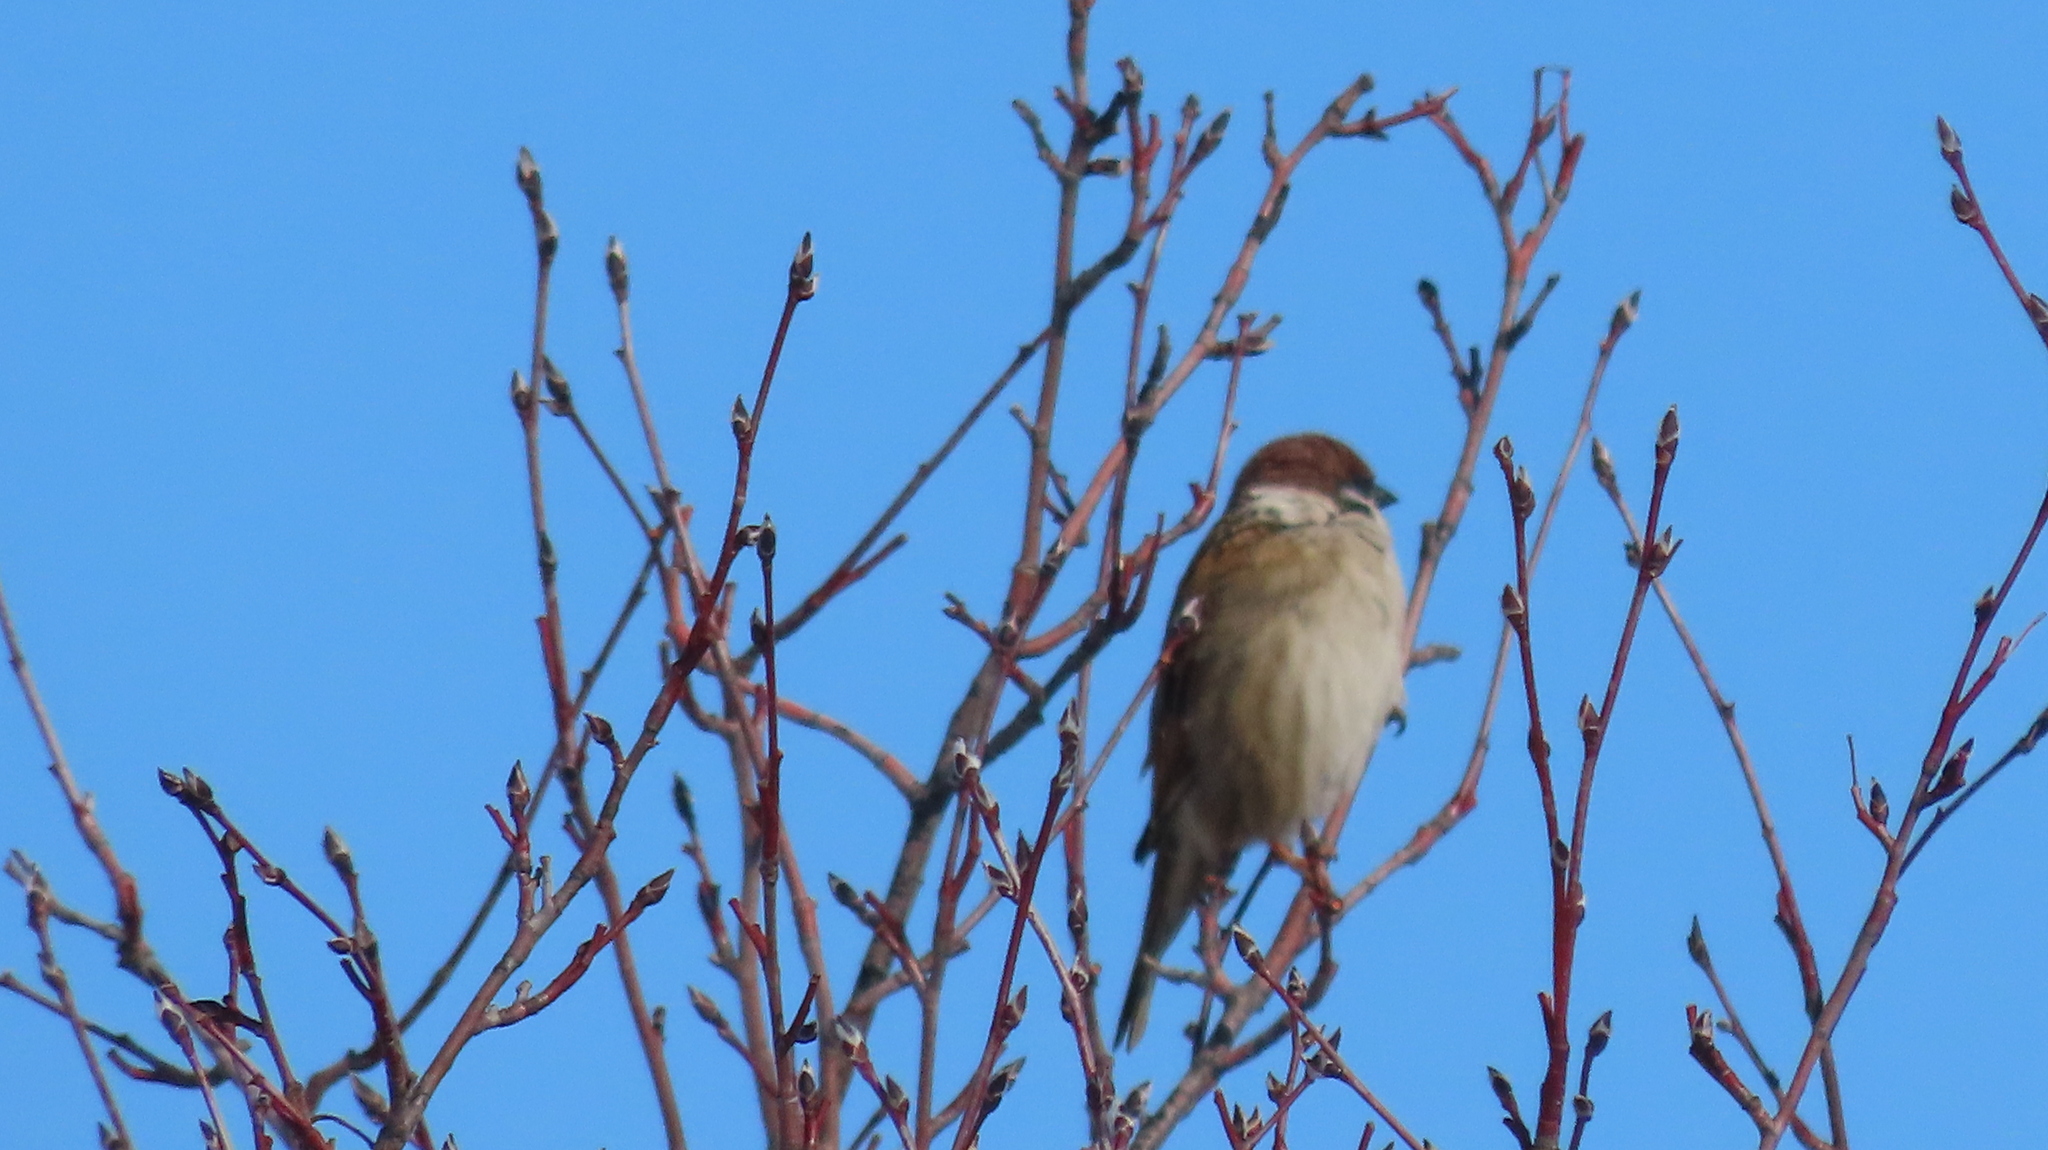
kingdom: Animalia
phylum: Chordata
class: Aves
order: Passeriformes
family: Passeridae
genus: Passer
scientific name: Passer montanus
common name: Eurasian tree sparrow
